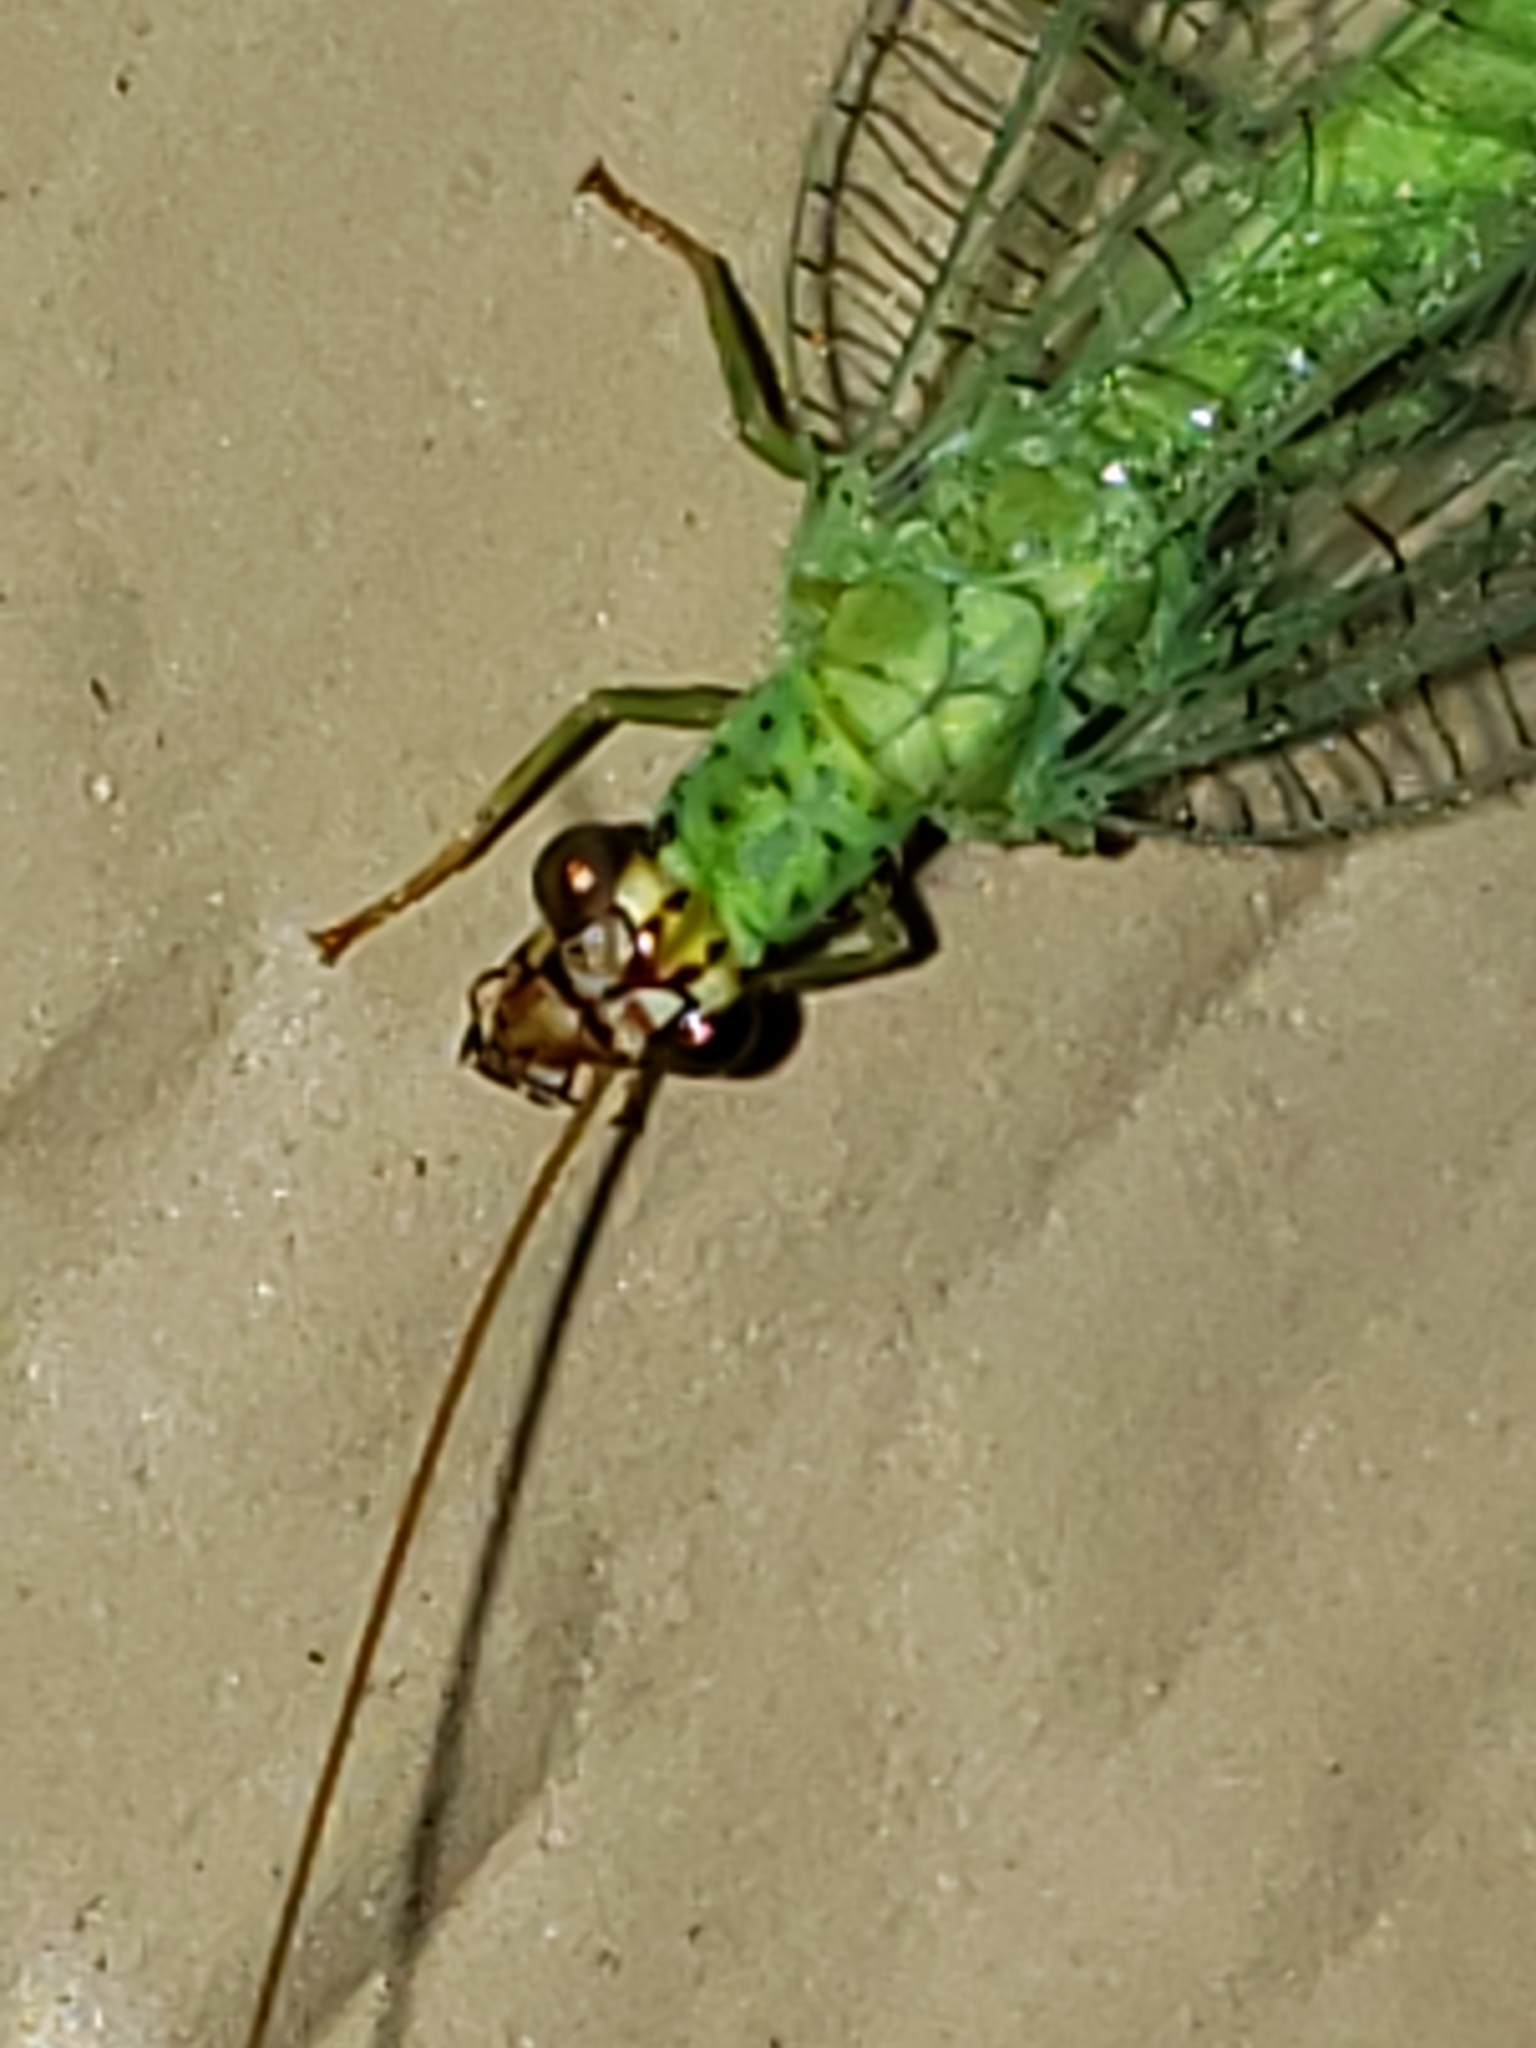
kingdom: Animalia
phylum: Arthropoda
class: Insecta
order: Neuroptera
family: Chrysopidae
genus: Chrysopa
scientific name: Chrysopa oculata
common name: Golden-eyed lacewing
